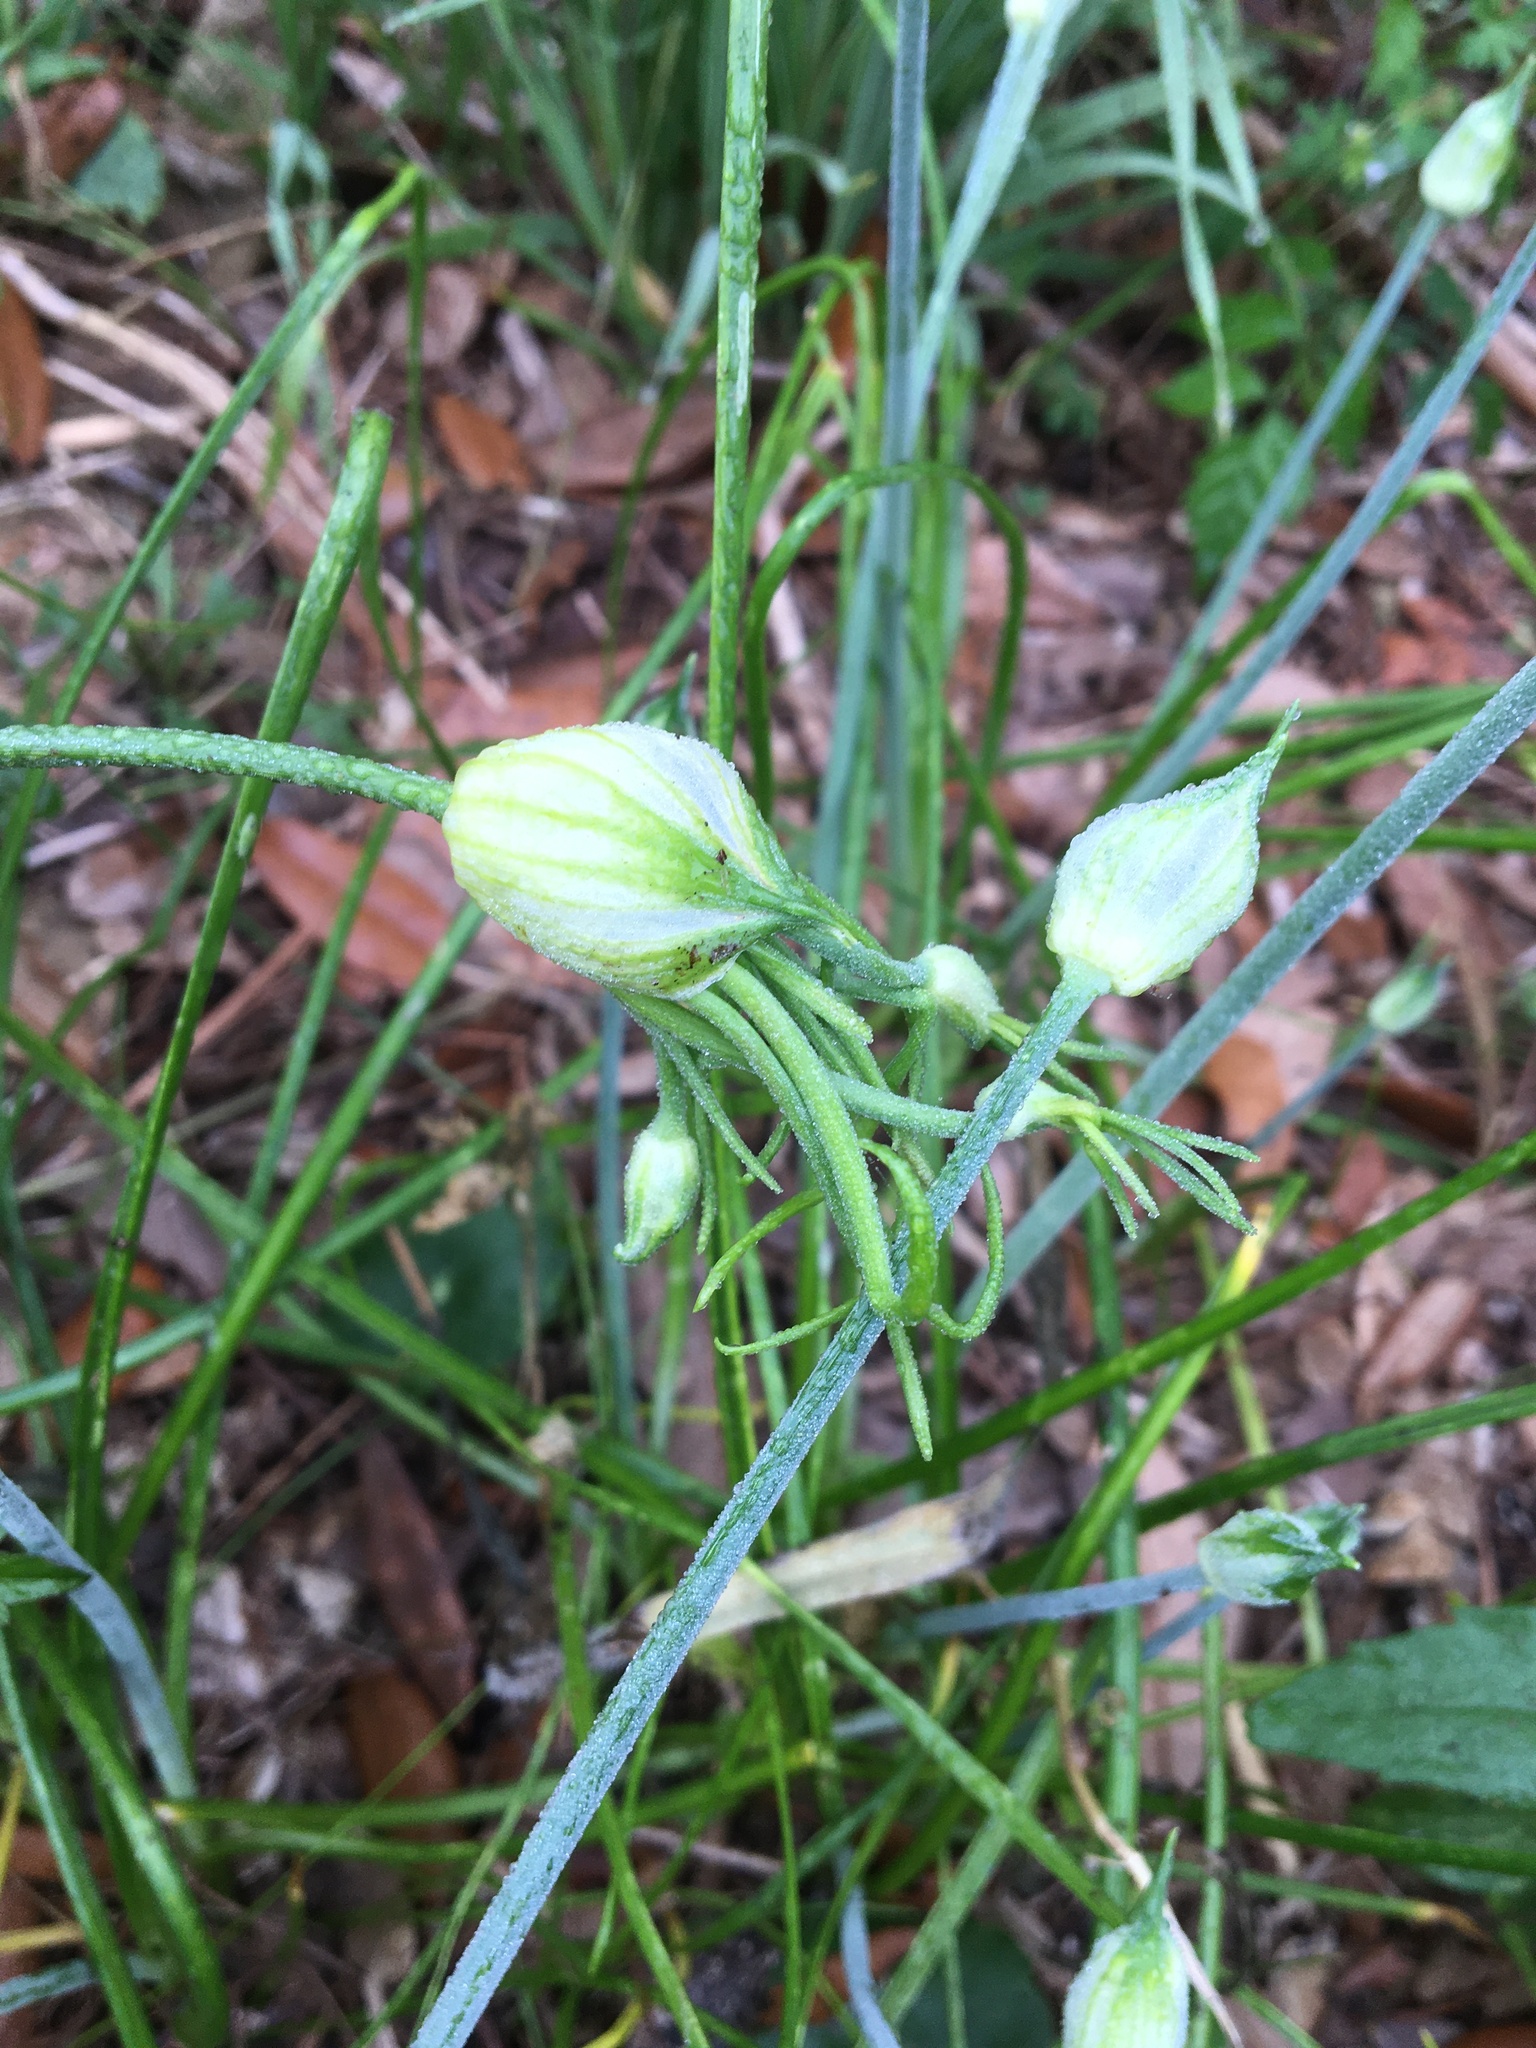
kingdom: Plantae
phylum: Tracheophyta
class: Liliopsida
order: Asparagales
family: Amaryllidaceae
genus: Allium
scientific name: Allium canadense
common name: Meadow garlic
